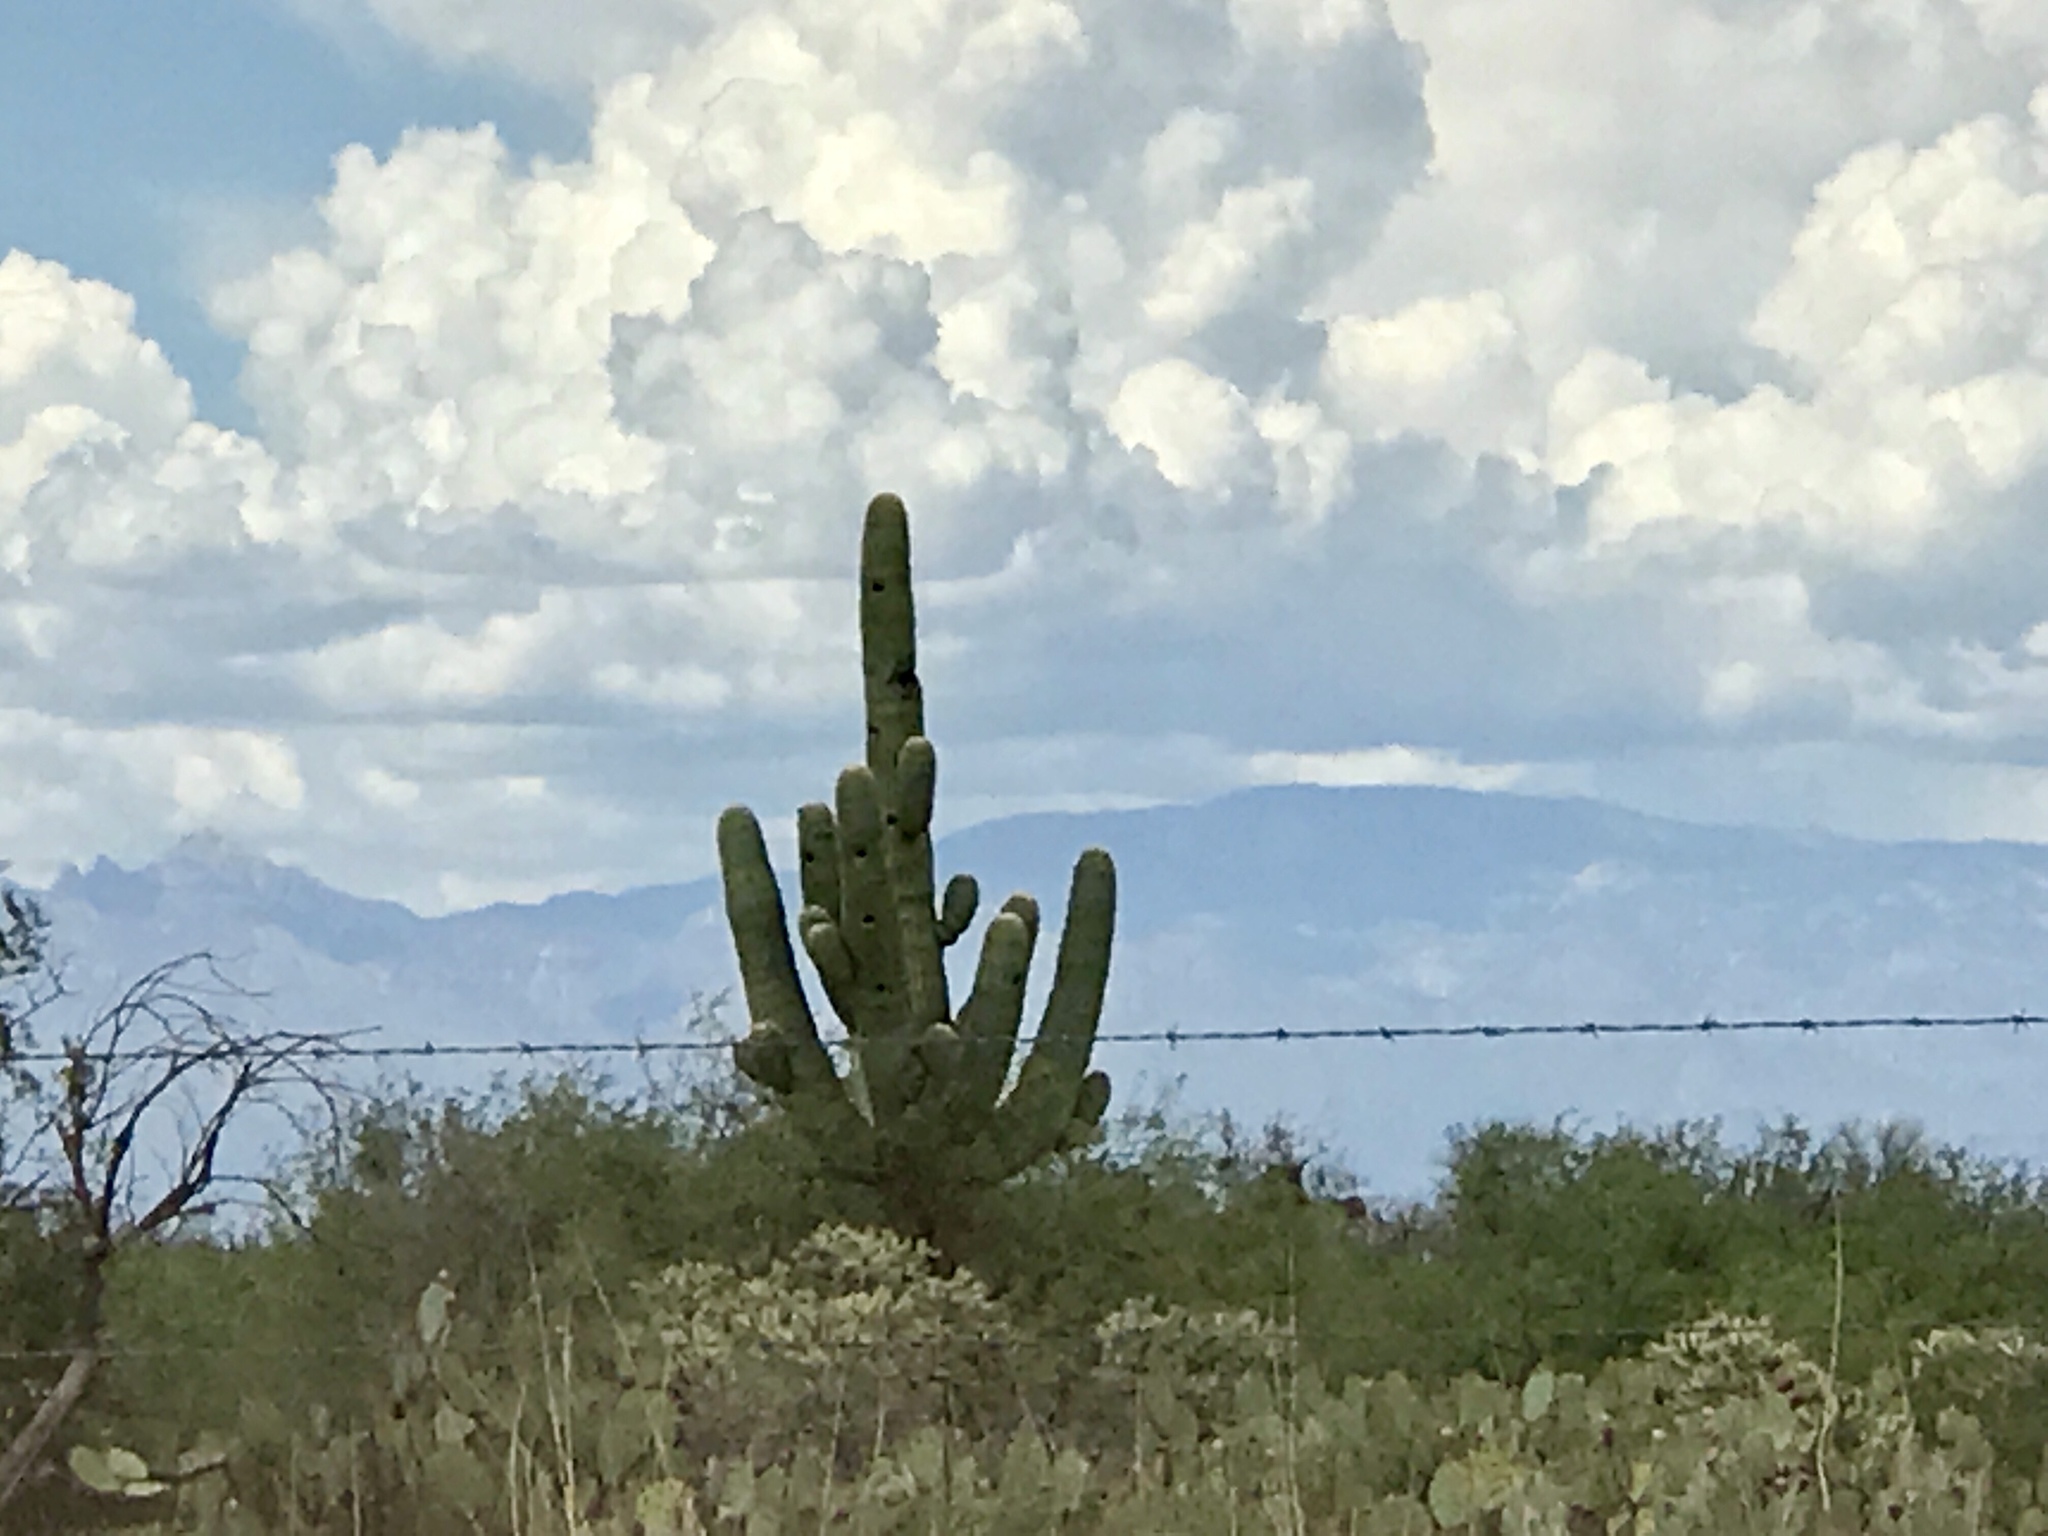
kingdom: Plantae
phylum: Tracheophyta
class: Magnoliopsida
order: Caryophyllales
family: Cactaceae
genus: Carnegiea
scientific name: Carnegiea gigantea
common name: Saguaro
